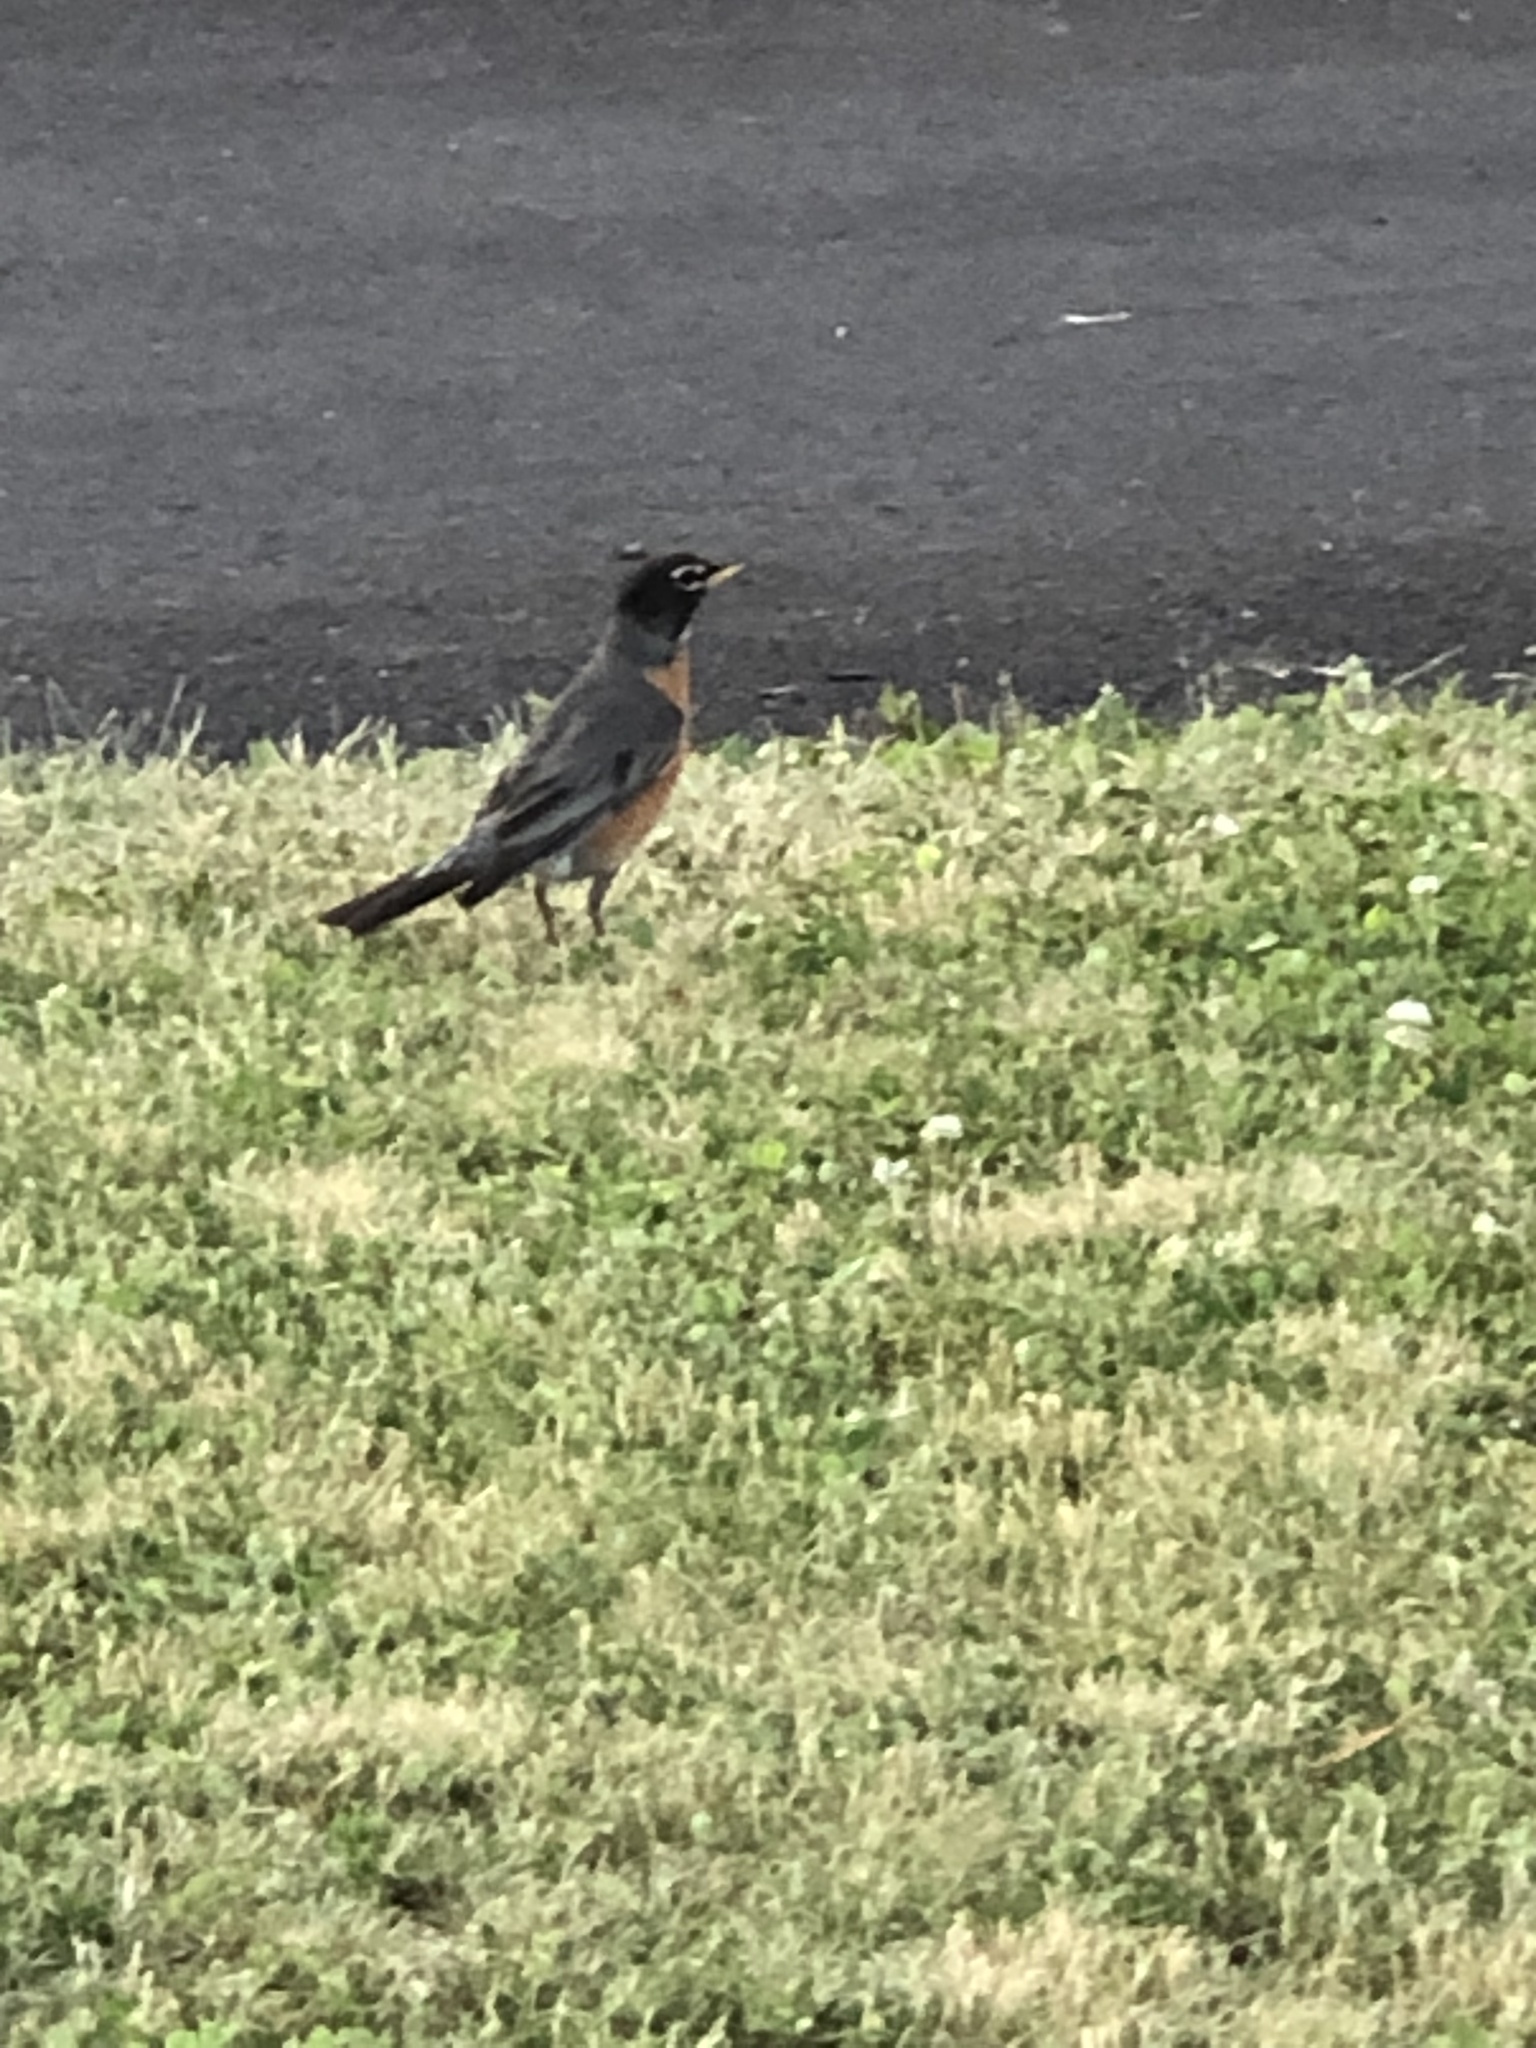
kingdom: Animalia
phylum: Chordata
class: Aves
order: Passeriformes
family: Turdidae
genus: Turdus
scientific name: Turdus migratorius
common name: American robin
